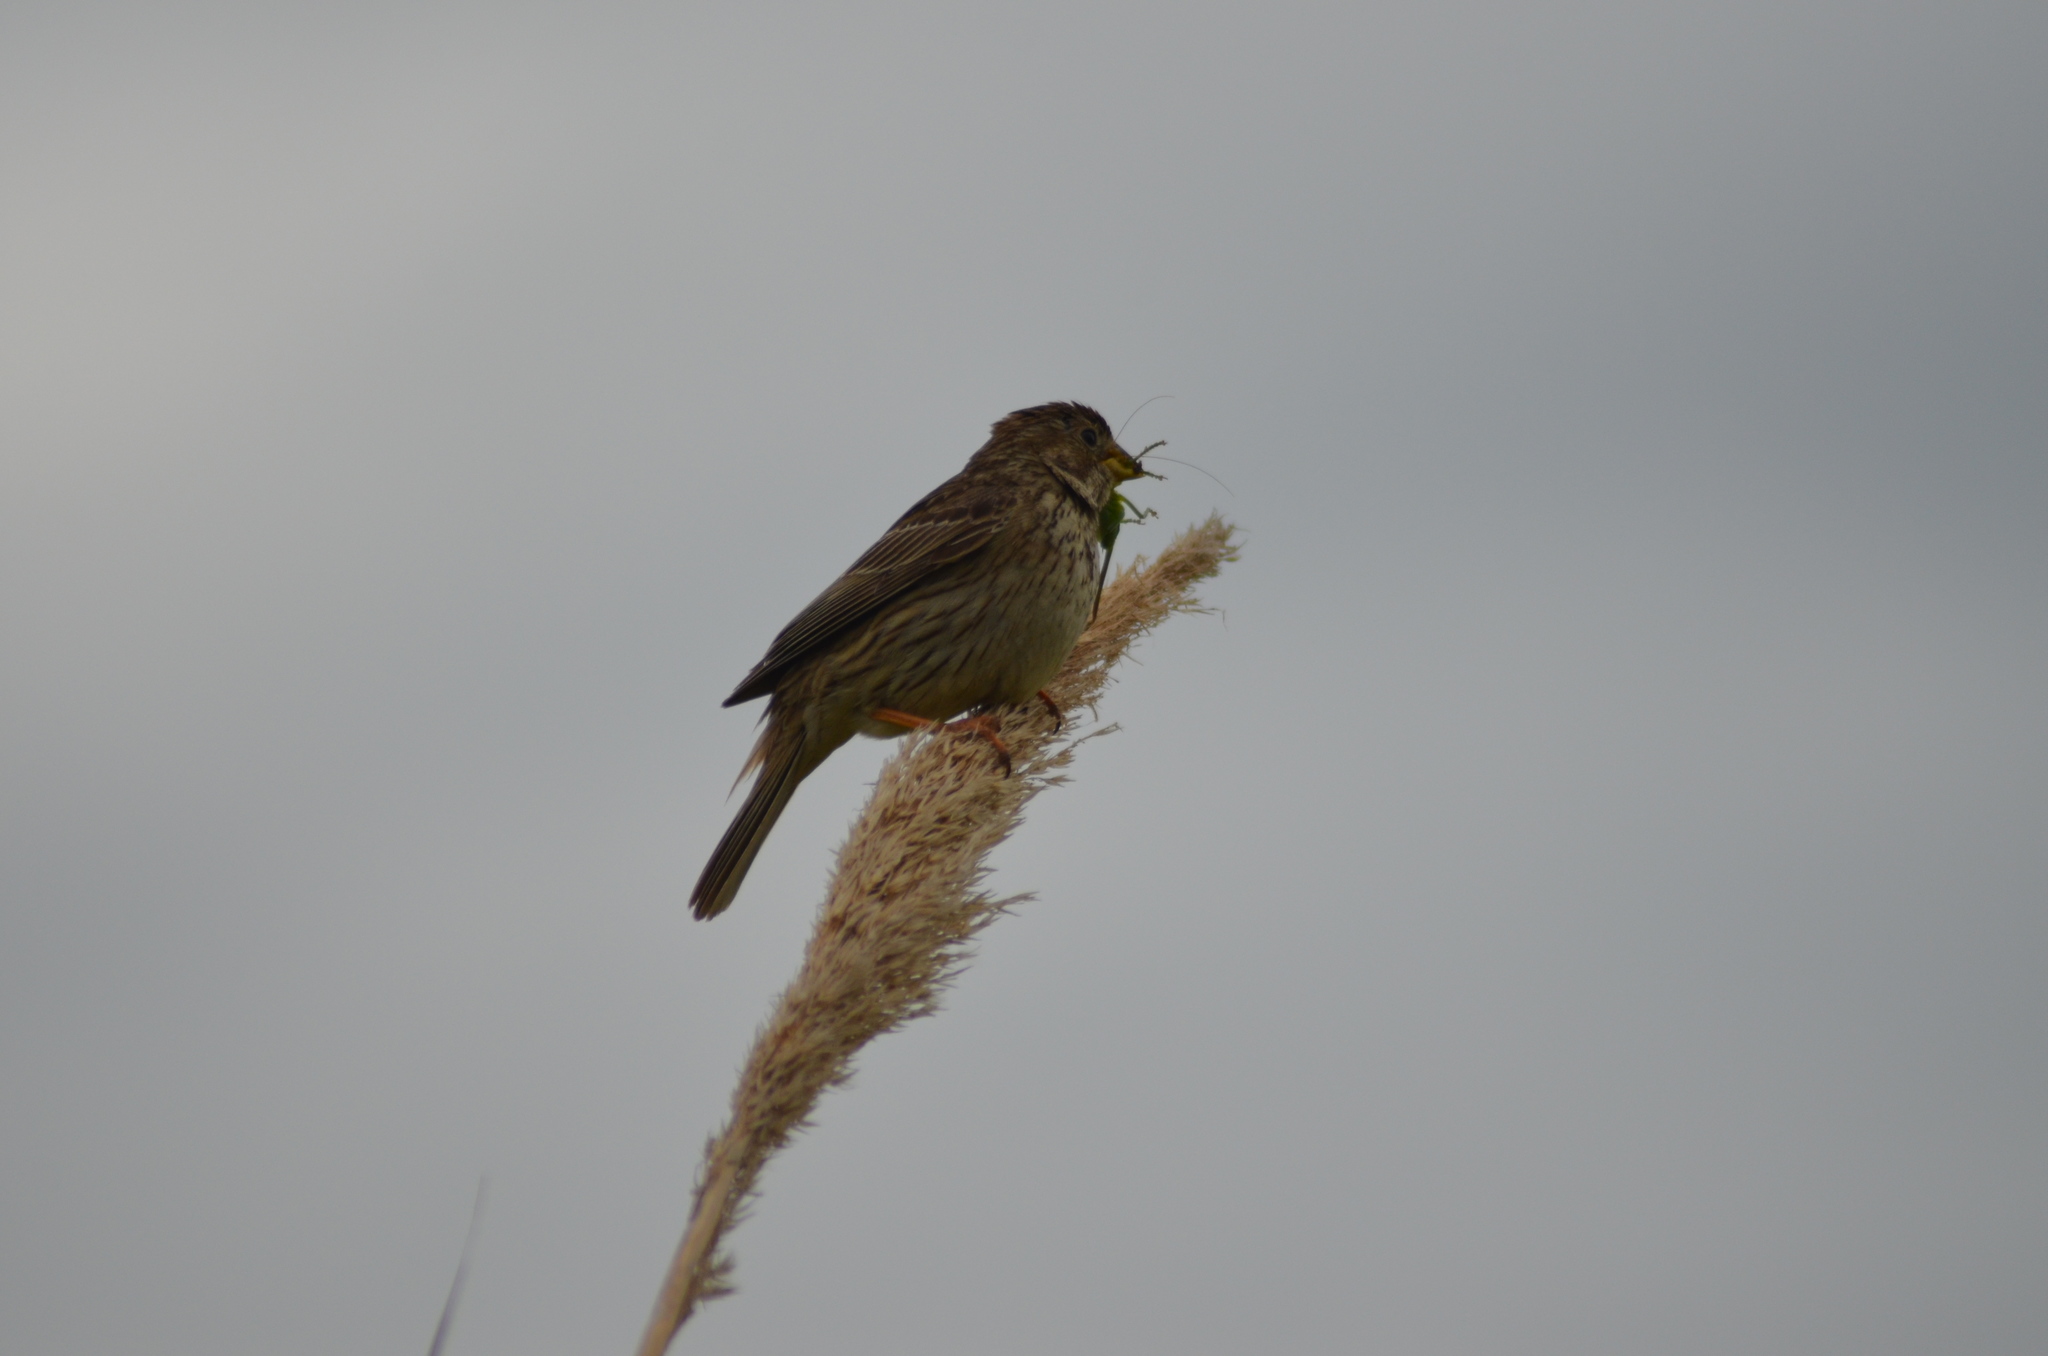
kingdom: Animalia
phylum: Chordata
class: Aves
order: Passeriformes
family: Emberizidae
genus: Emberiza
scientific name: Emberiza calandra
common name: Corn bunting
